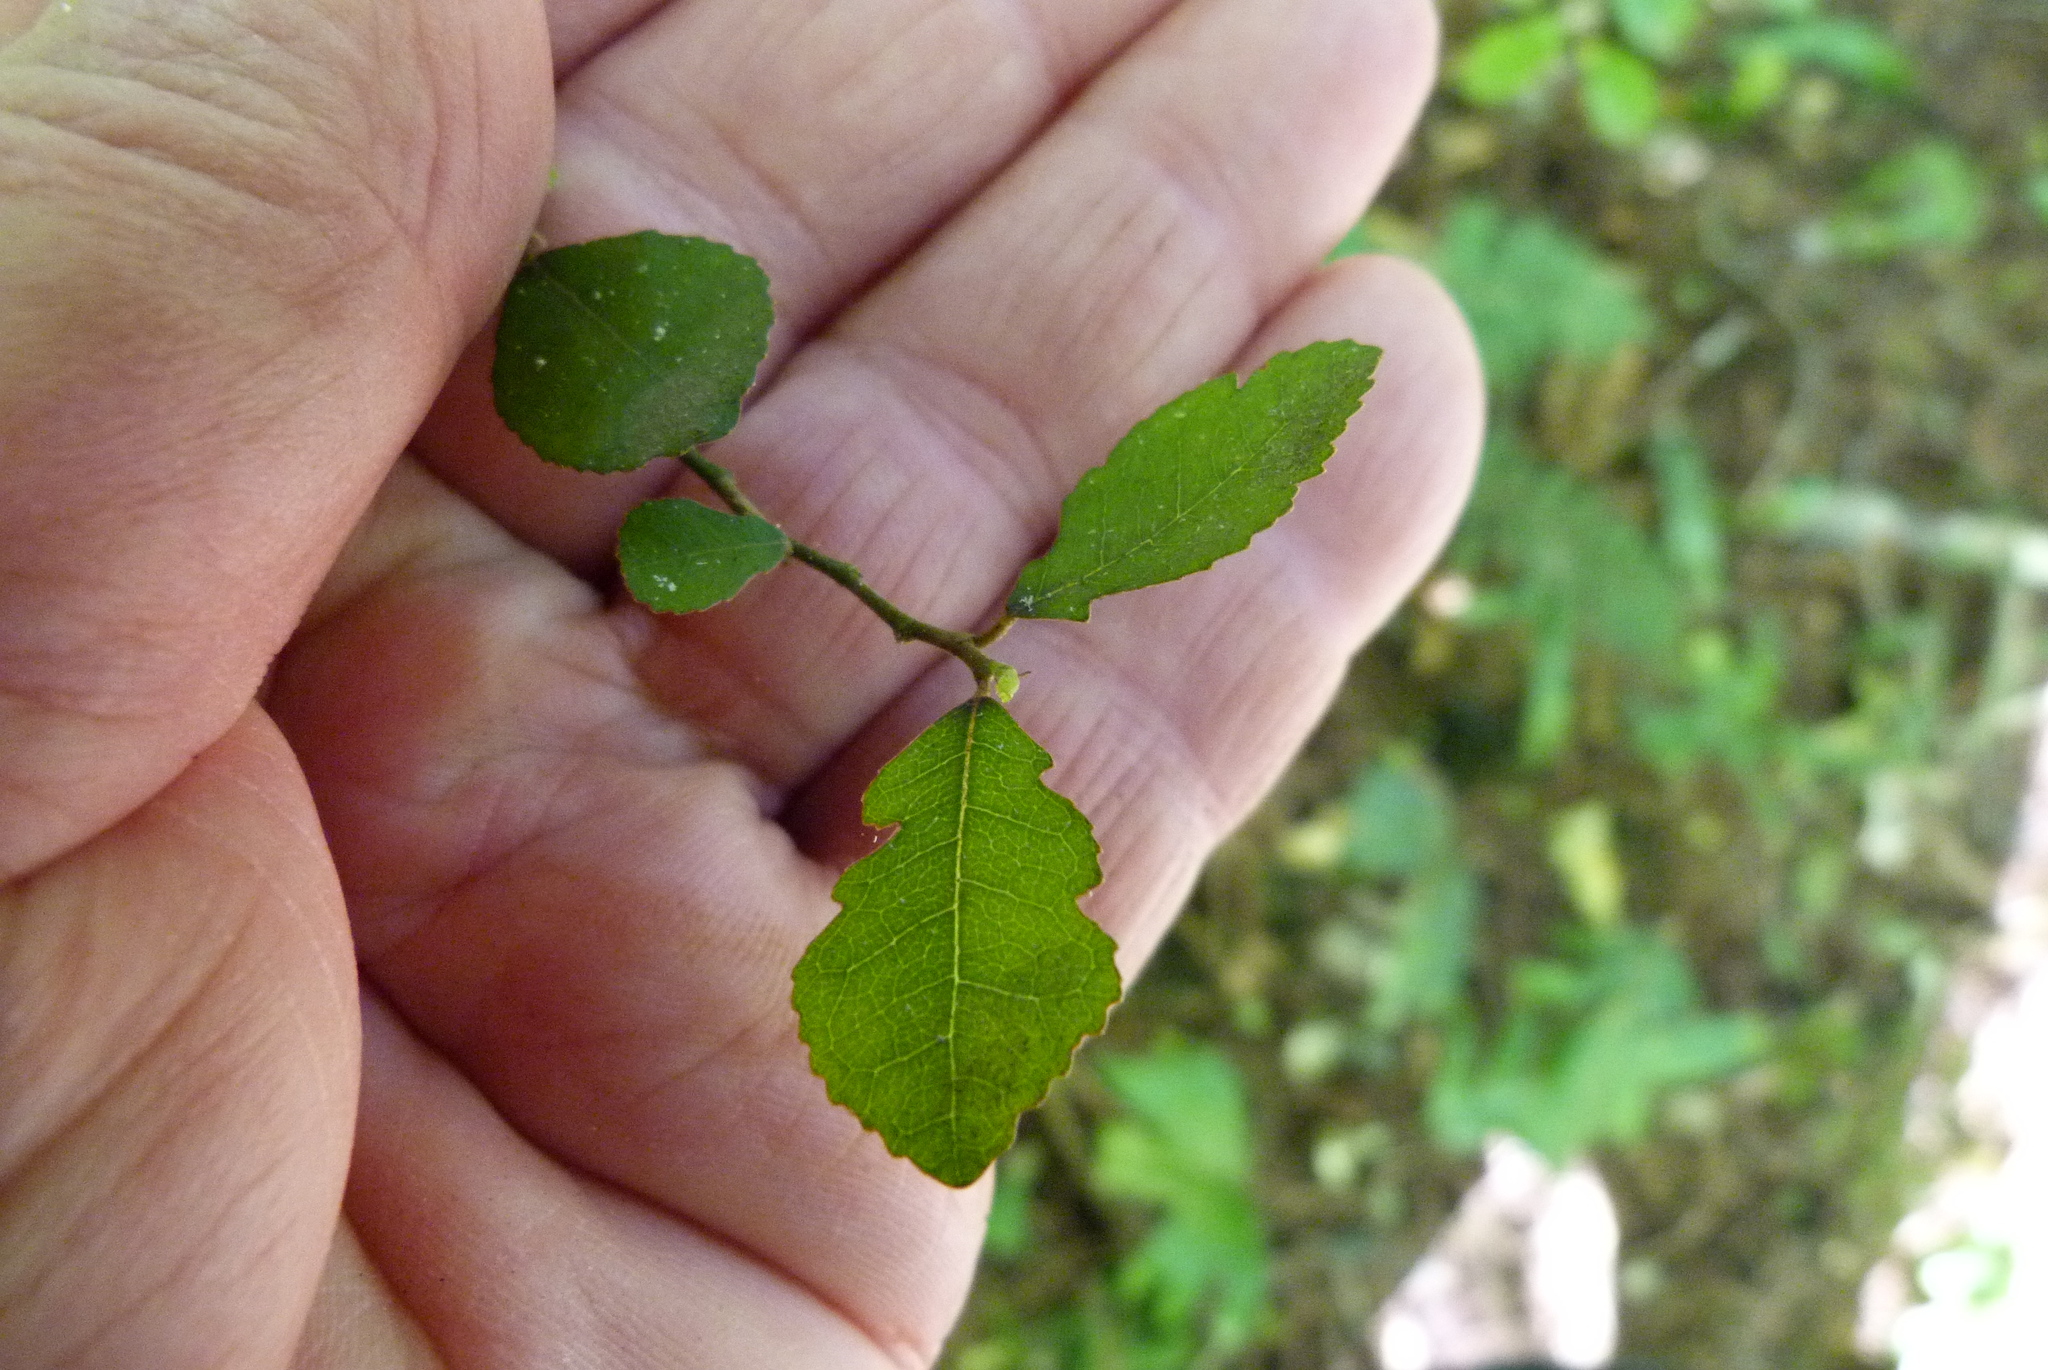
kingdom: Plantae
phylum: Tracheophyta
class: Magnoliopsida
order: Rosales
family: Moraceae
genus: Paratrophis
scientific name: Paratrophis microphylla
